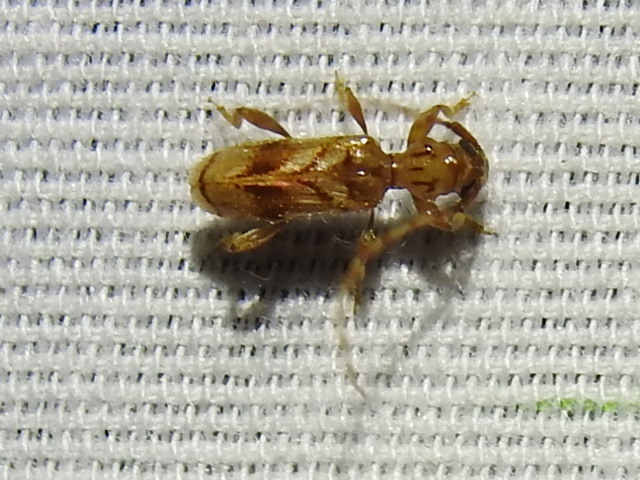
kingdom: Animalia
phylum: Arthropoda
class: Insecta
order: Coleoptera
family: Cerambycidae
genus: Obrium
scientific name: Obrium maculatum
